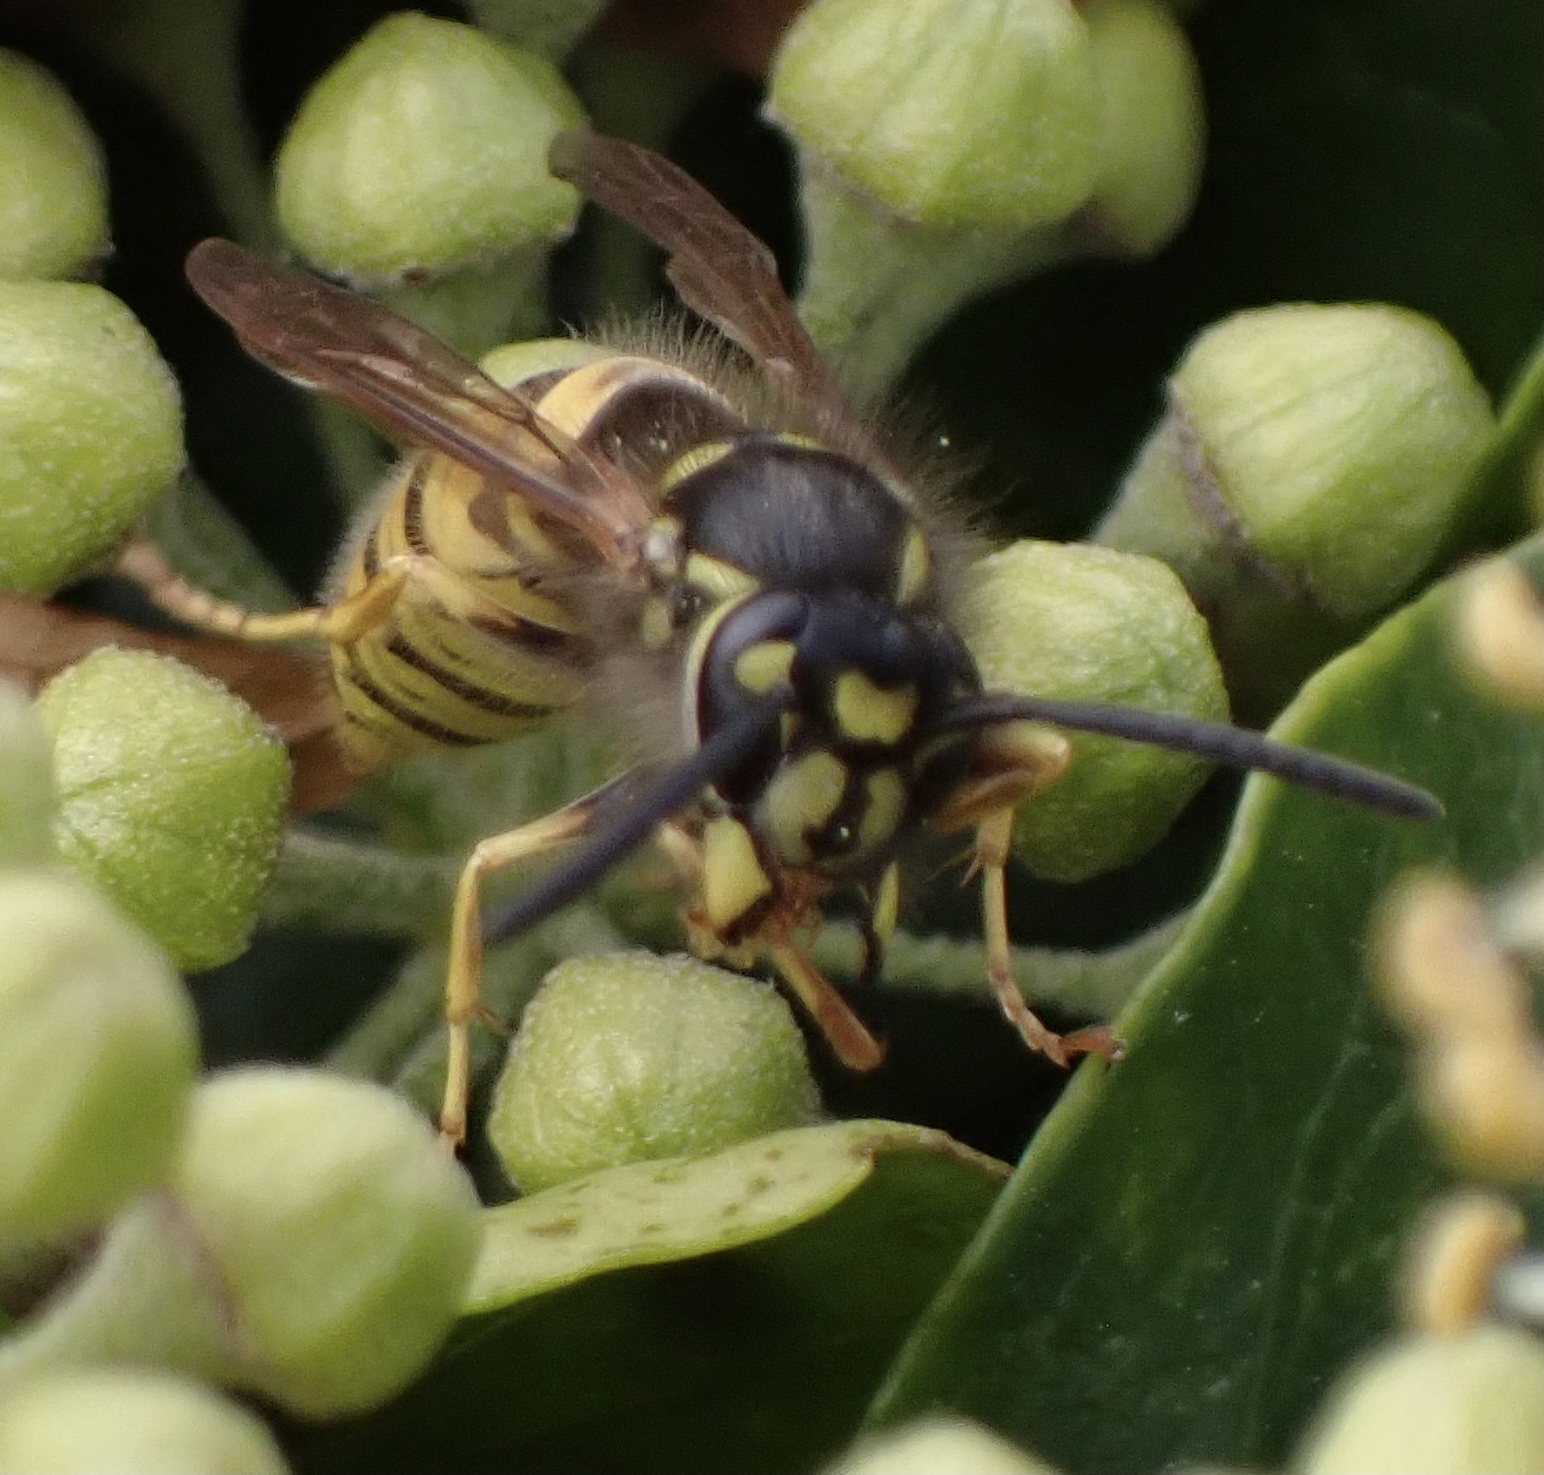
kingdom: Animalia
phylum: Arthropoda
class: Insecta
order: Hymenoptera
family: Vespidae
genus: Vespula
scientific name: Vespula vulgaris
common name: Common wasp
